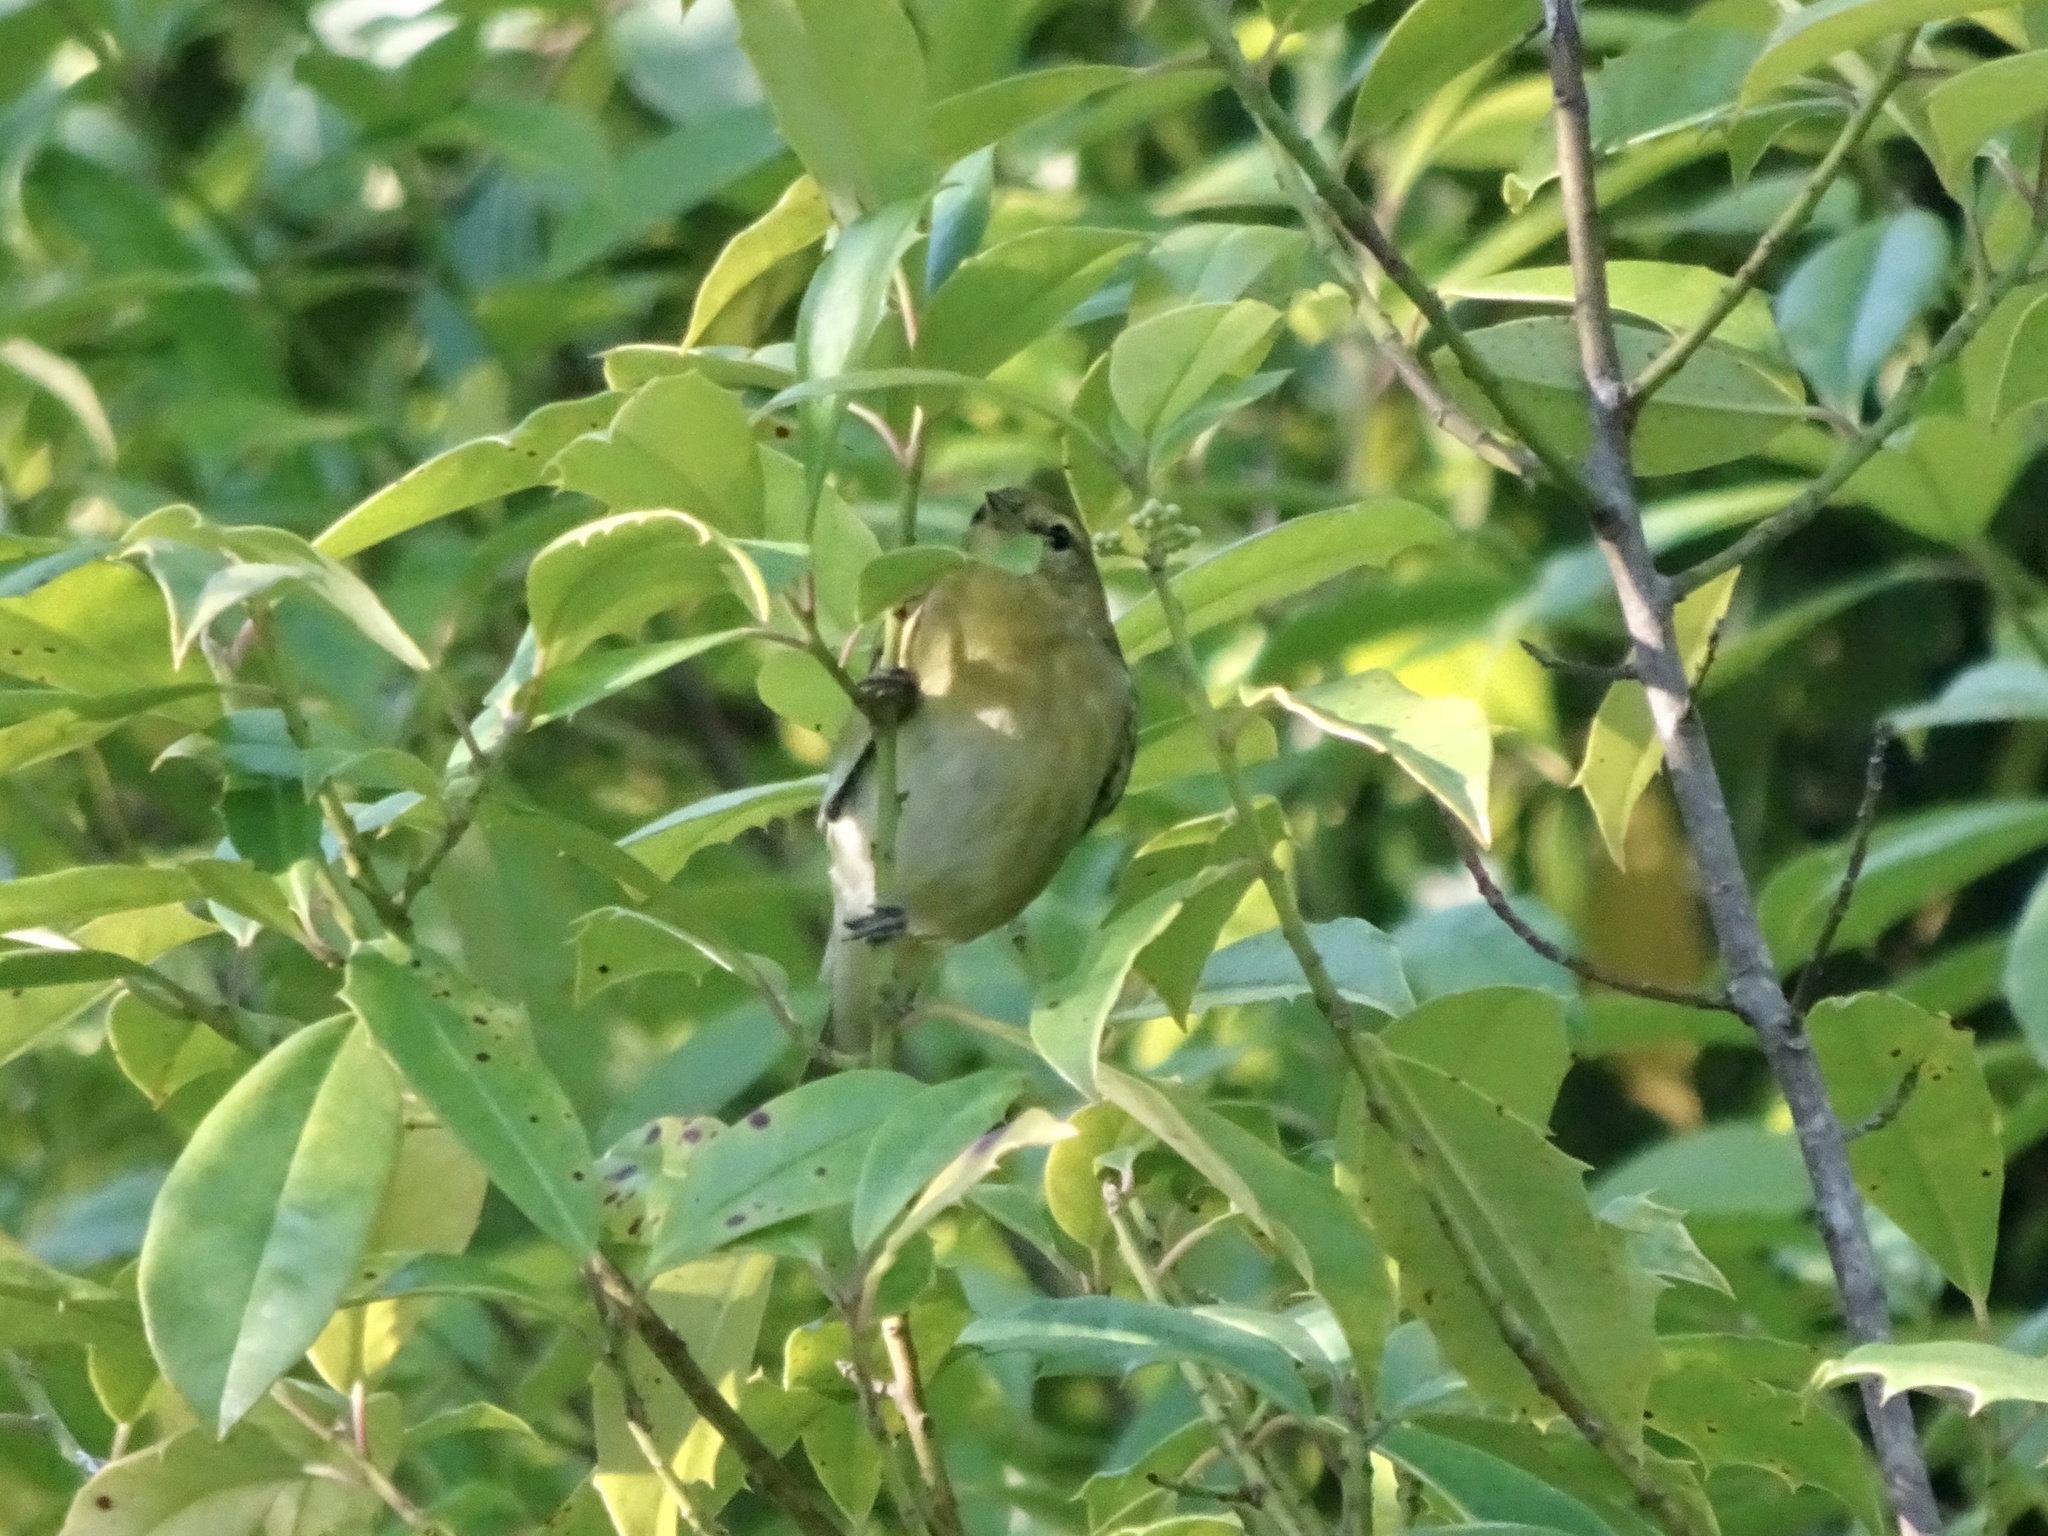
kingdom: Animalia
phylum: Chordata
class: Aves
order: Passeriformes
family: Parulidae
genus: Leiothlypis
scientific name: Leiothlypis peregrina
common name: Tennessee warbler
